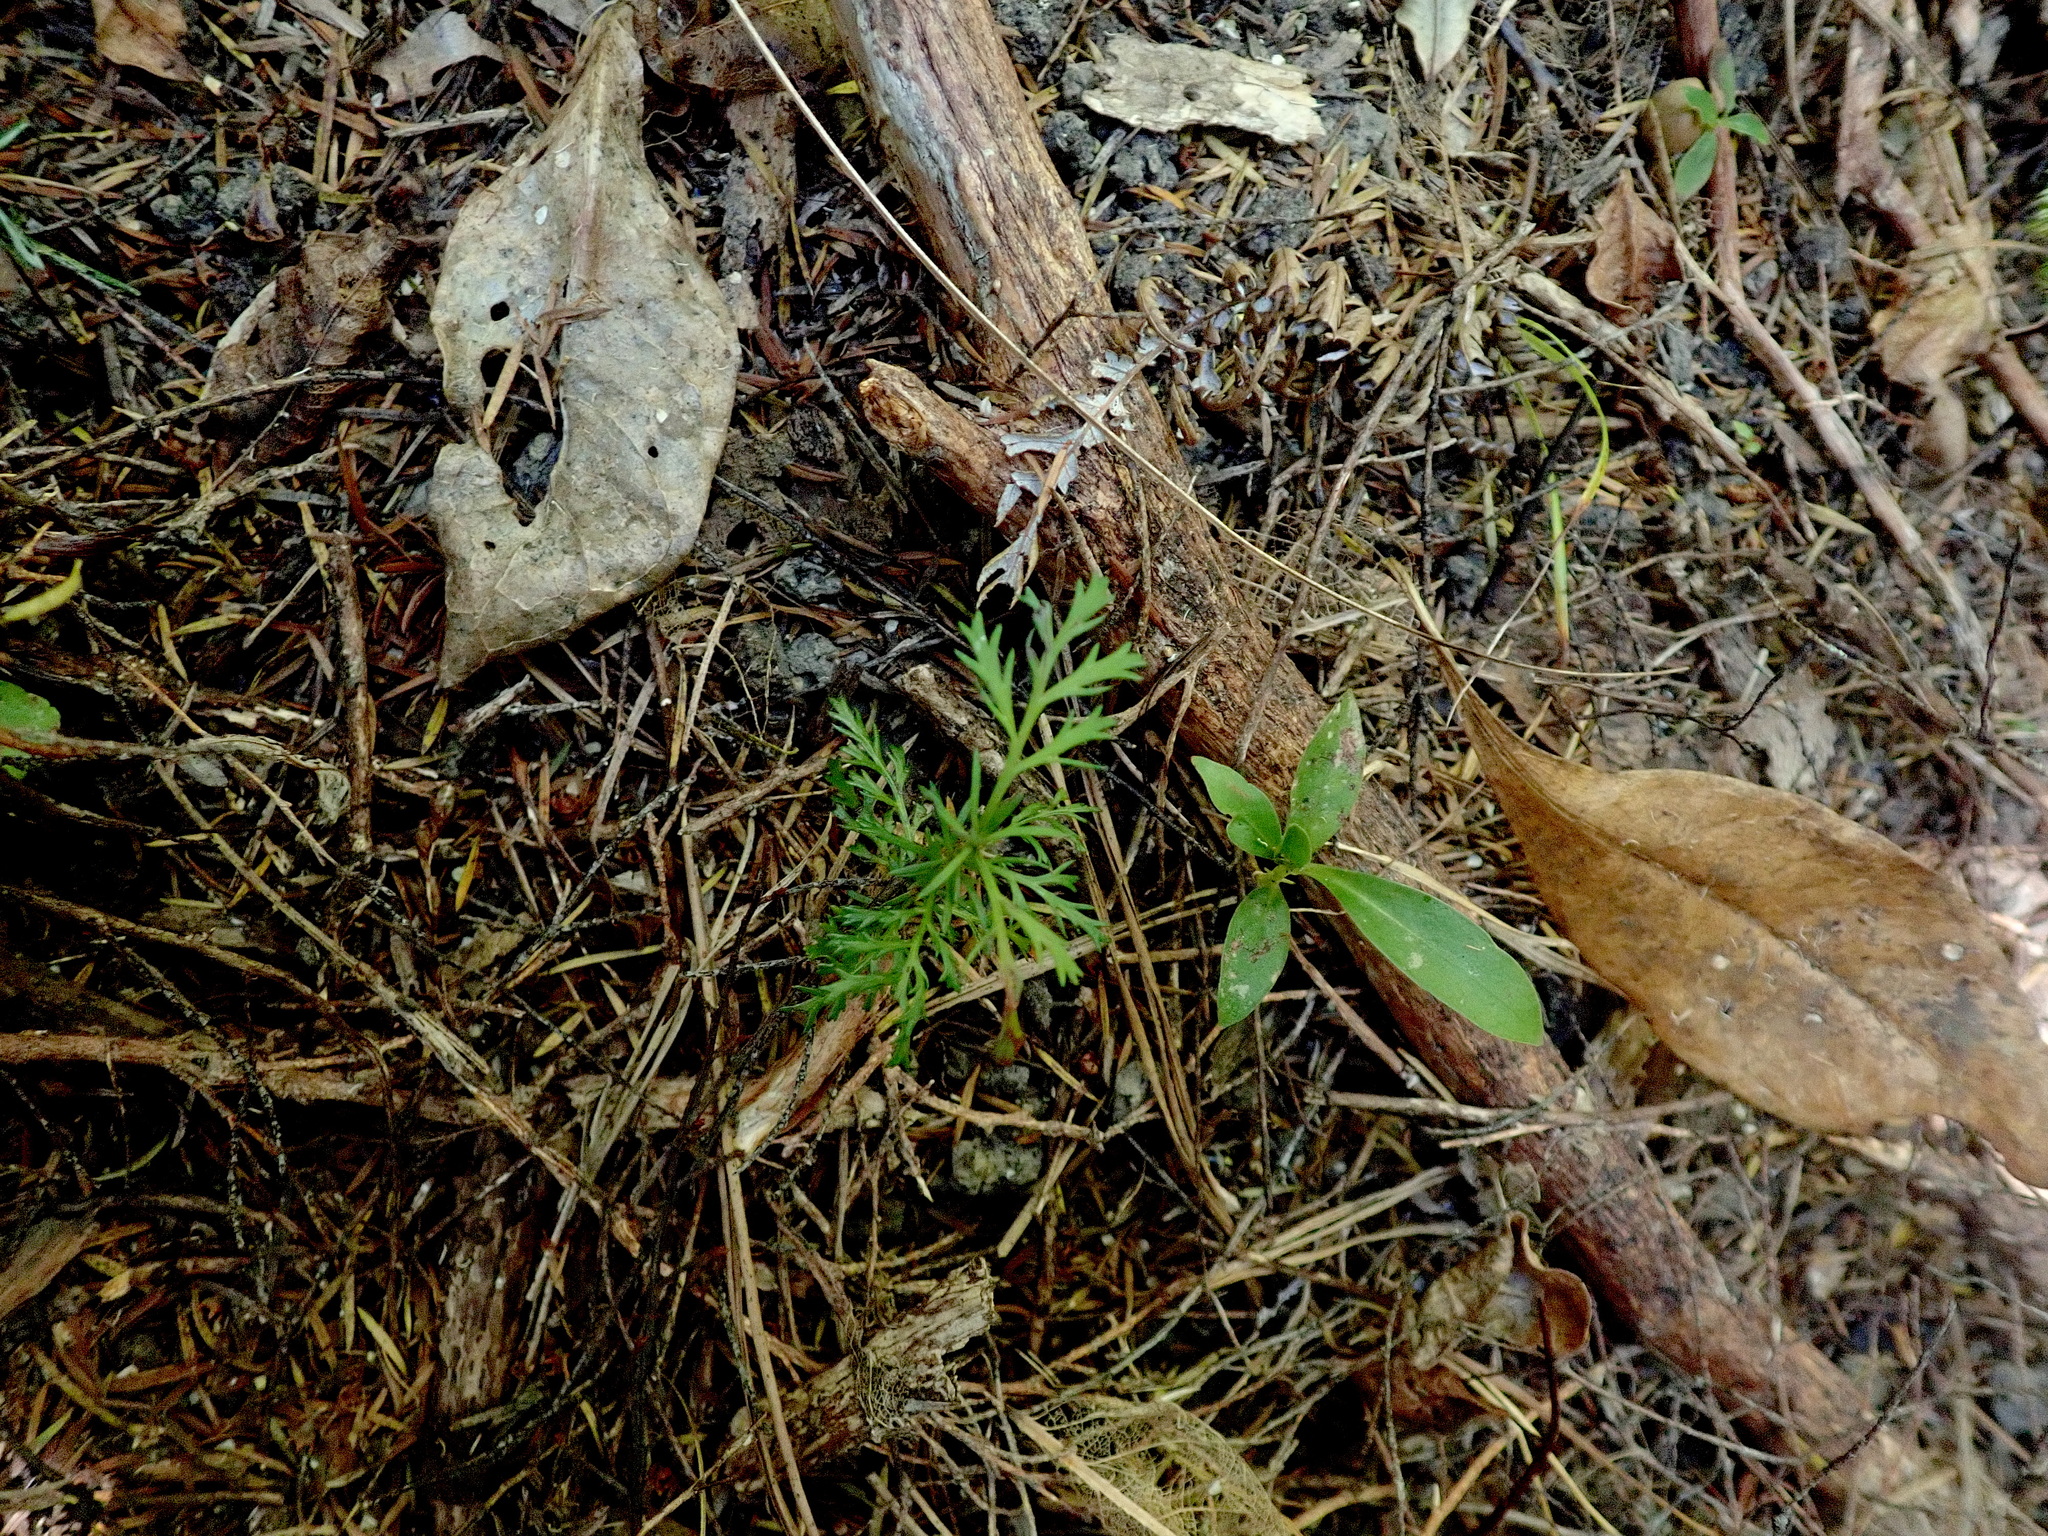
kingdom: Plantae
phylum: Tracheophyta
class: Pinopsida
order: Pinales
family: Phyllocladaceae
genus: Phyllocladus
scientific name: Phyllocladus trichomanoides
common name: Celery pine
